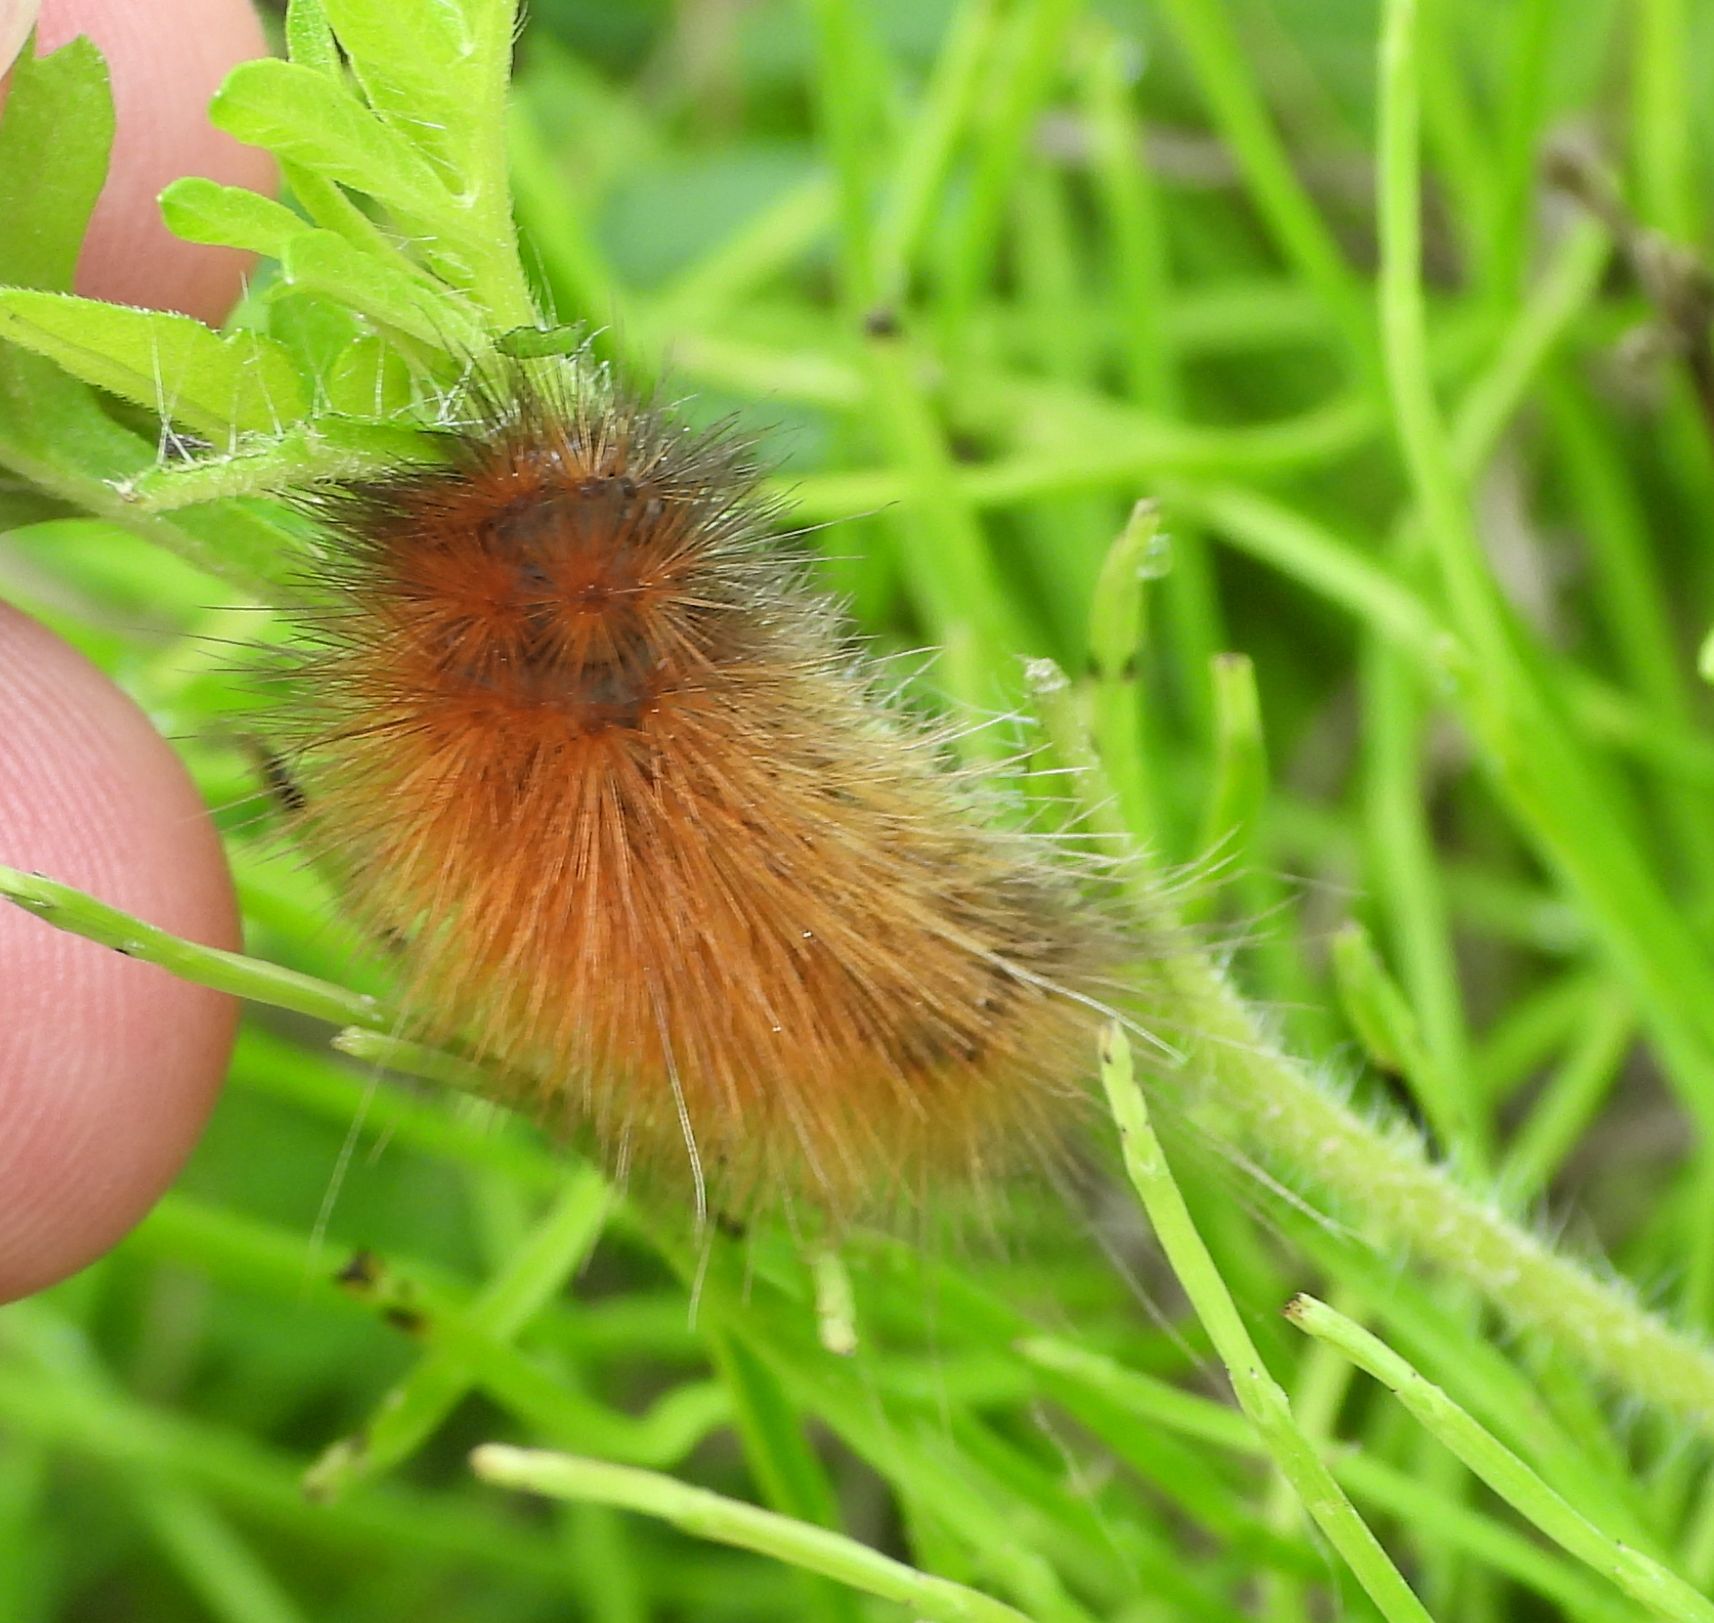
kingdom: Animalia
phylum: Arthropoda
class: Insecta
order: Lepidoptera
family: Erebidae
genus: Spilosoma
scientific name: Spilosoma virginica
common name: Virginia tiger moth
